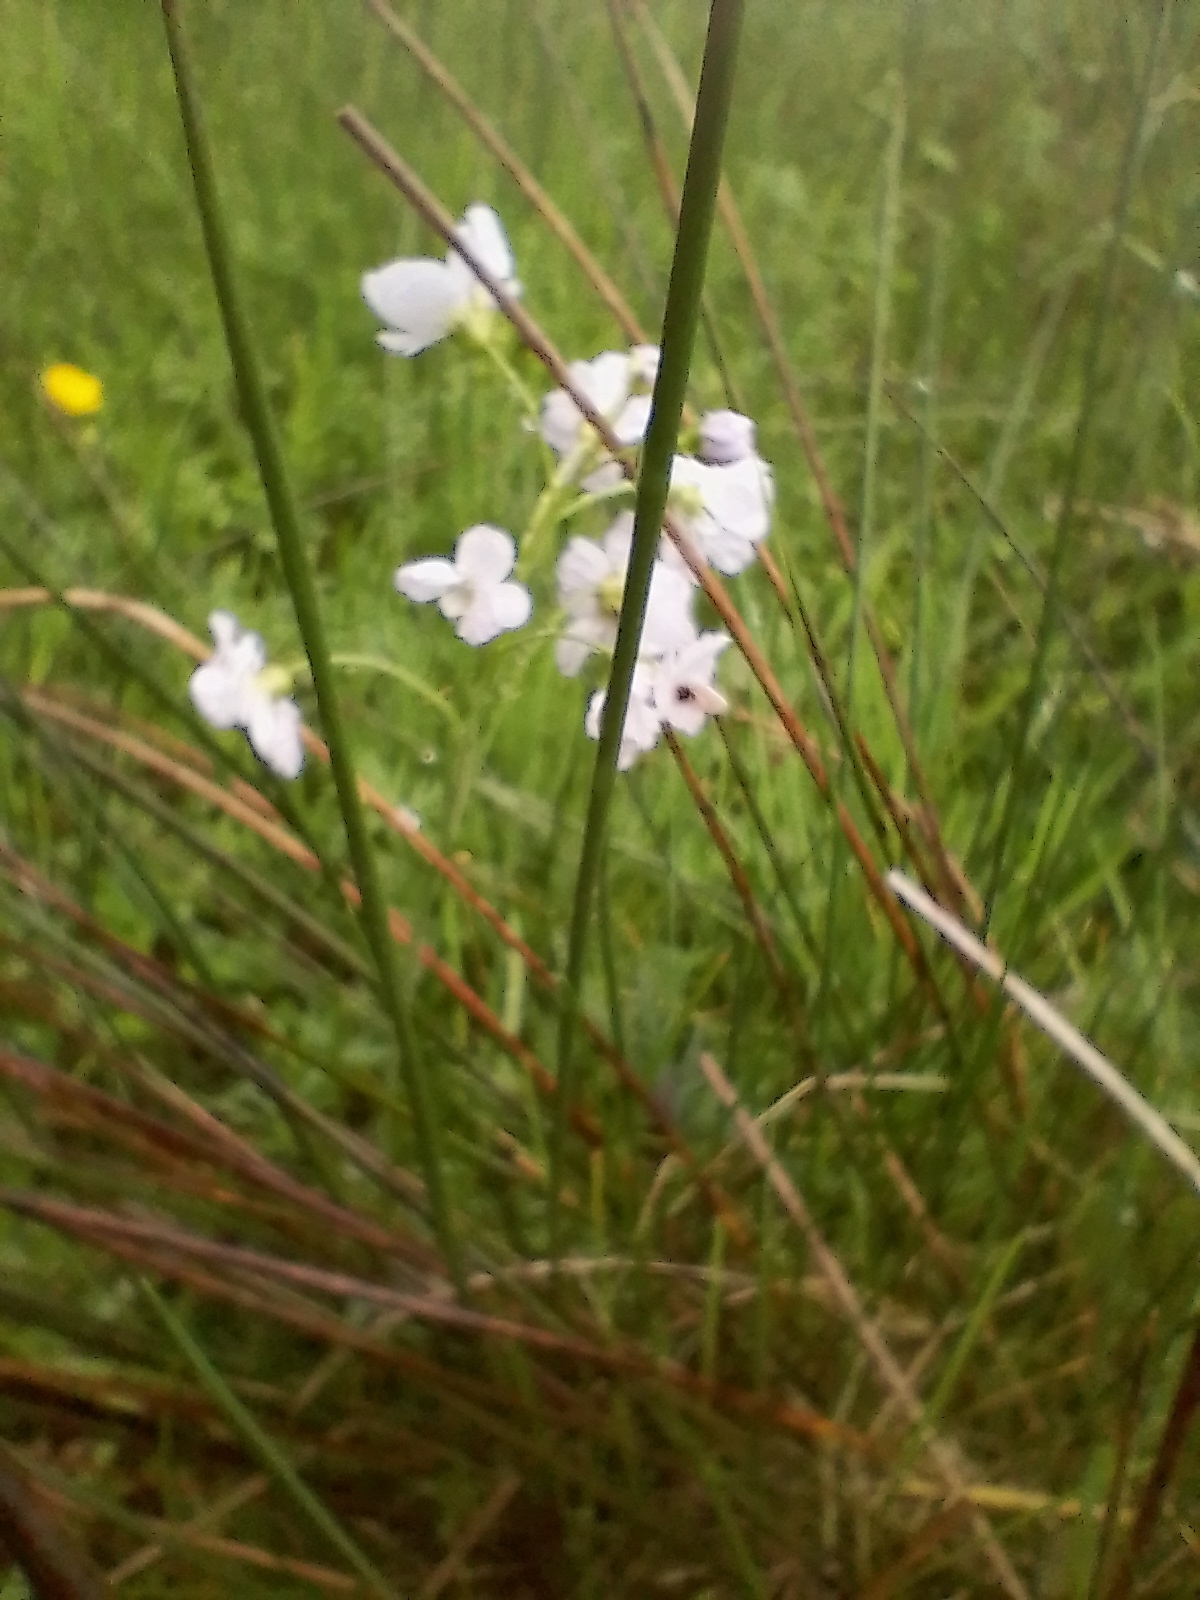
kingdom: Plantae
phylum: Tracheophyta
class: Magnoliopsida
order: Brassicales
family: Brassicaceae
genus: Cardamine
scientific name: Cardamine pratensis
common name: Cuckoo flower
